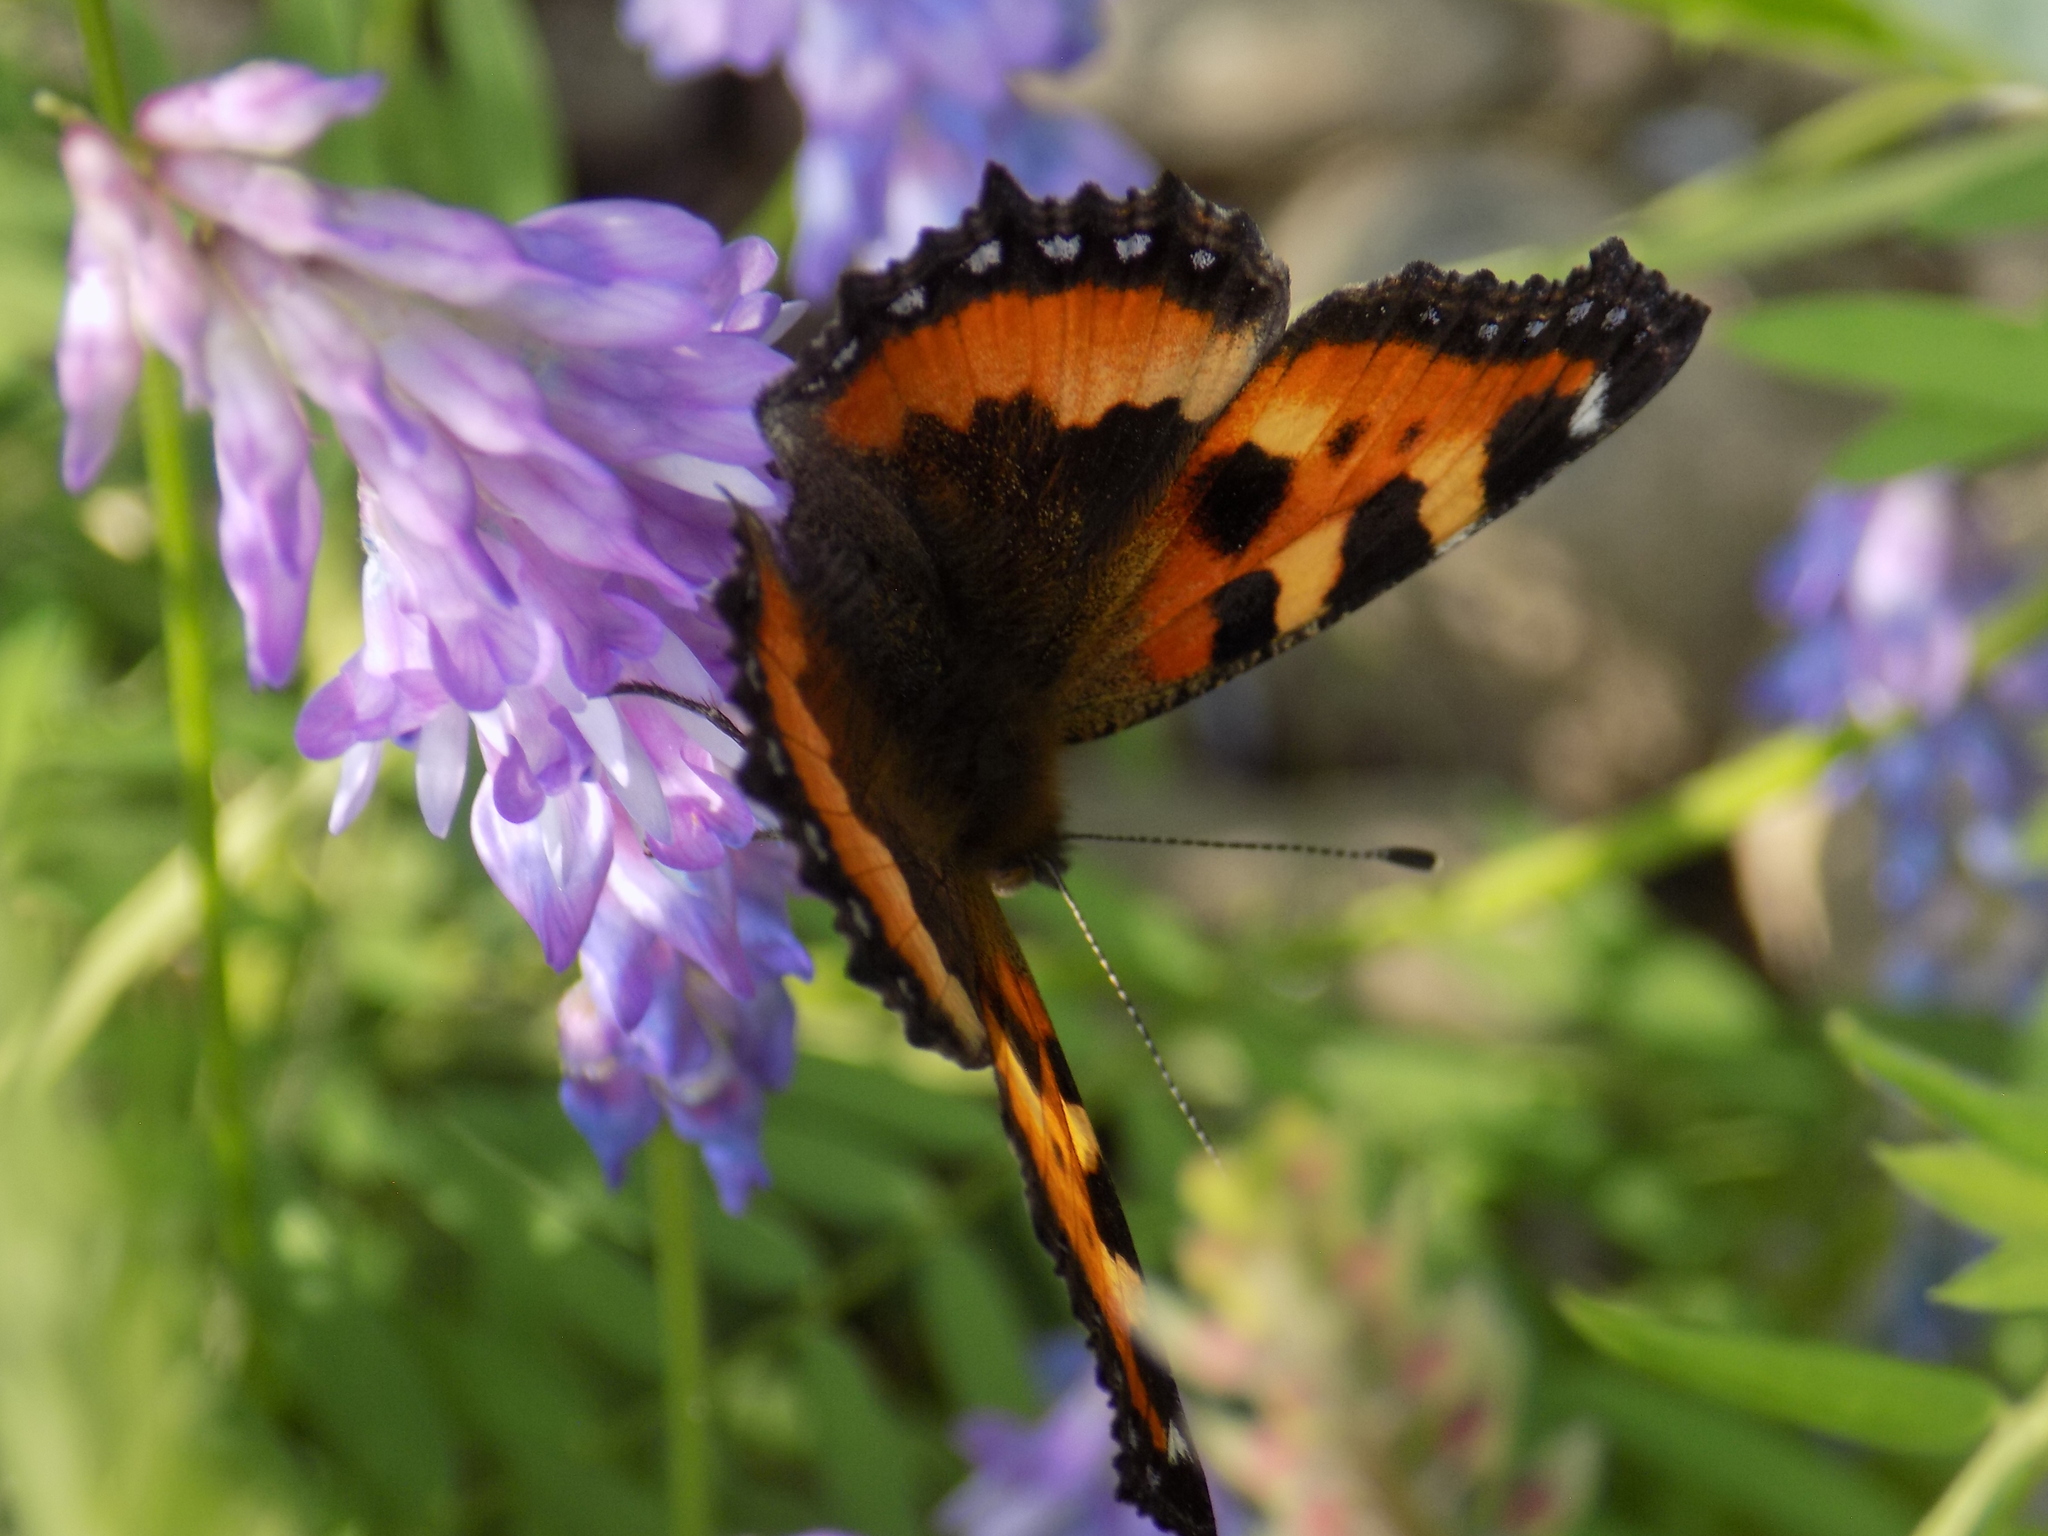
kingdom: Animalia
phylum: Arthropoda
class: Insecta
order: Lepidoptera
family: Nymphalidae
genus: Aglais
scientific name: Aglais urticae
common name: Small tortoiseshell
